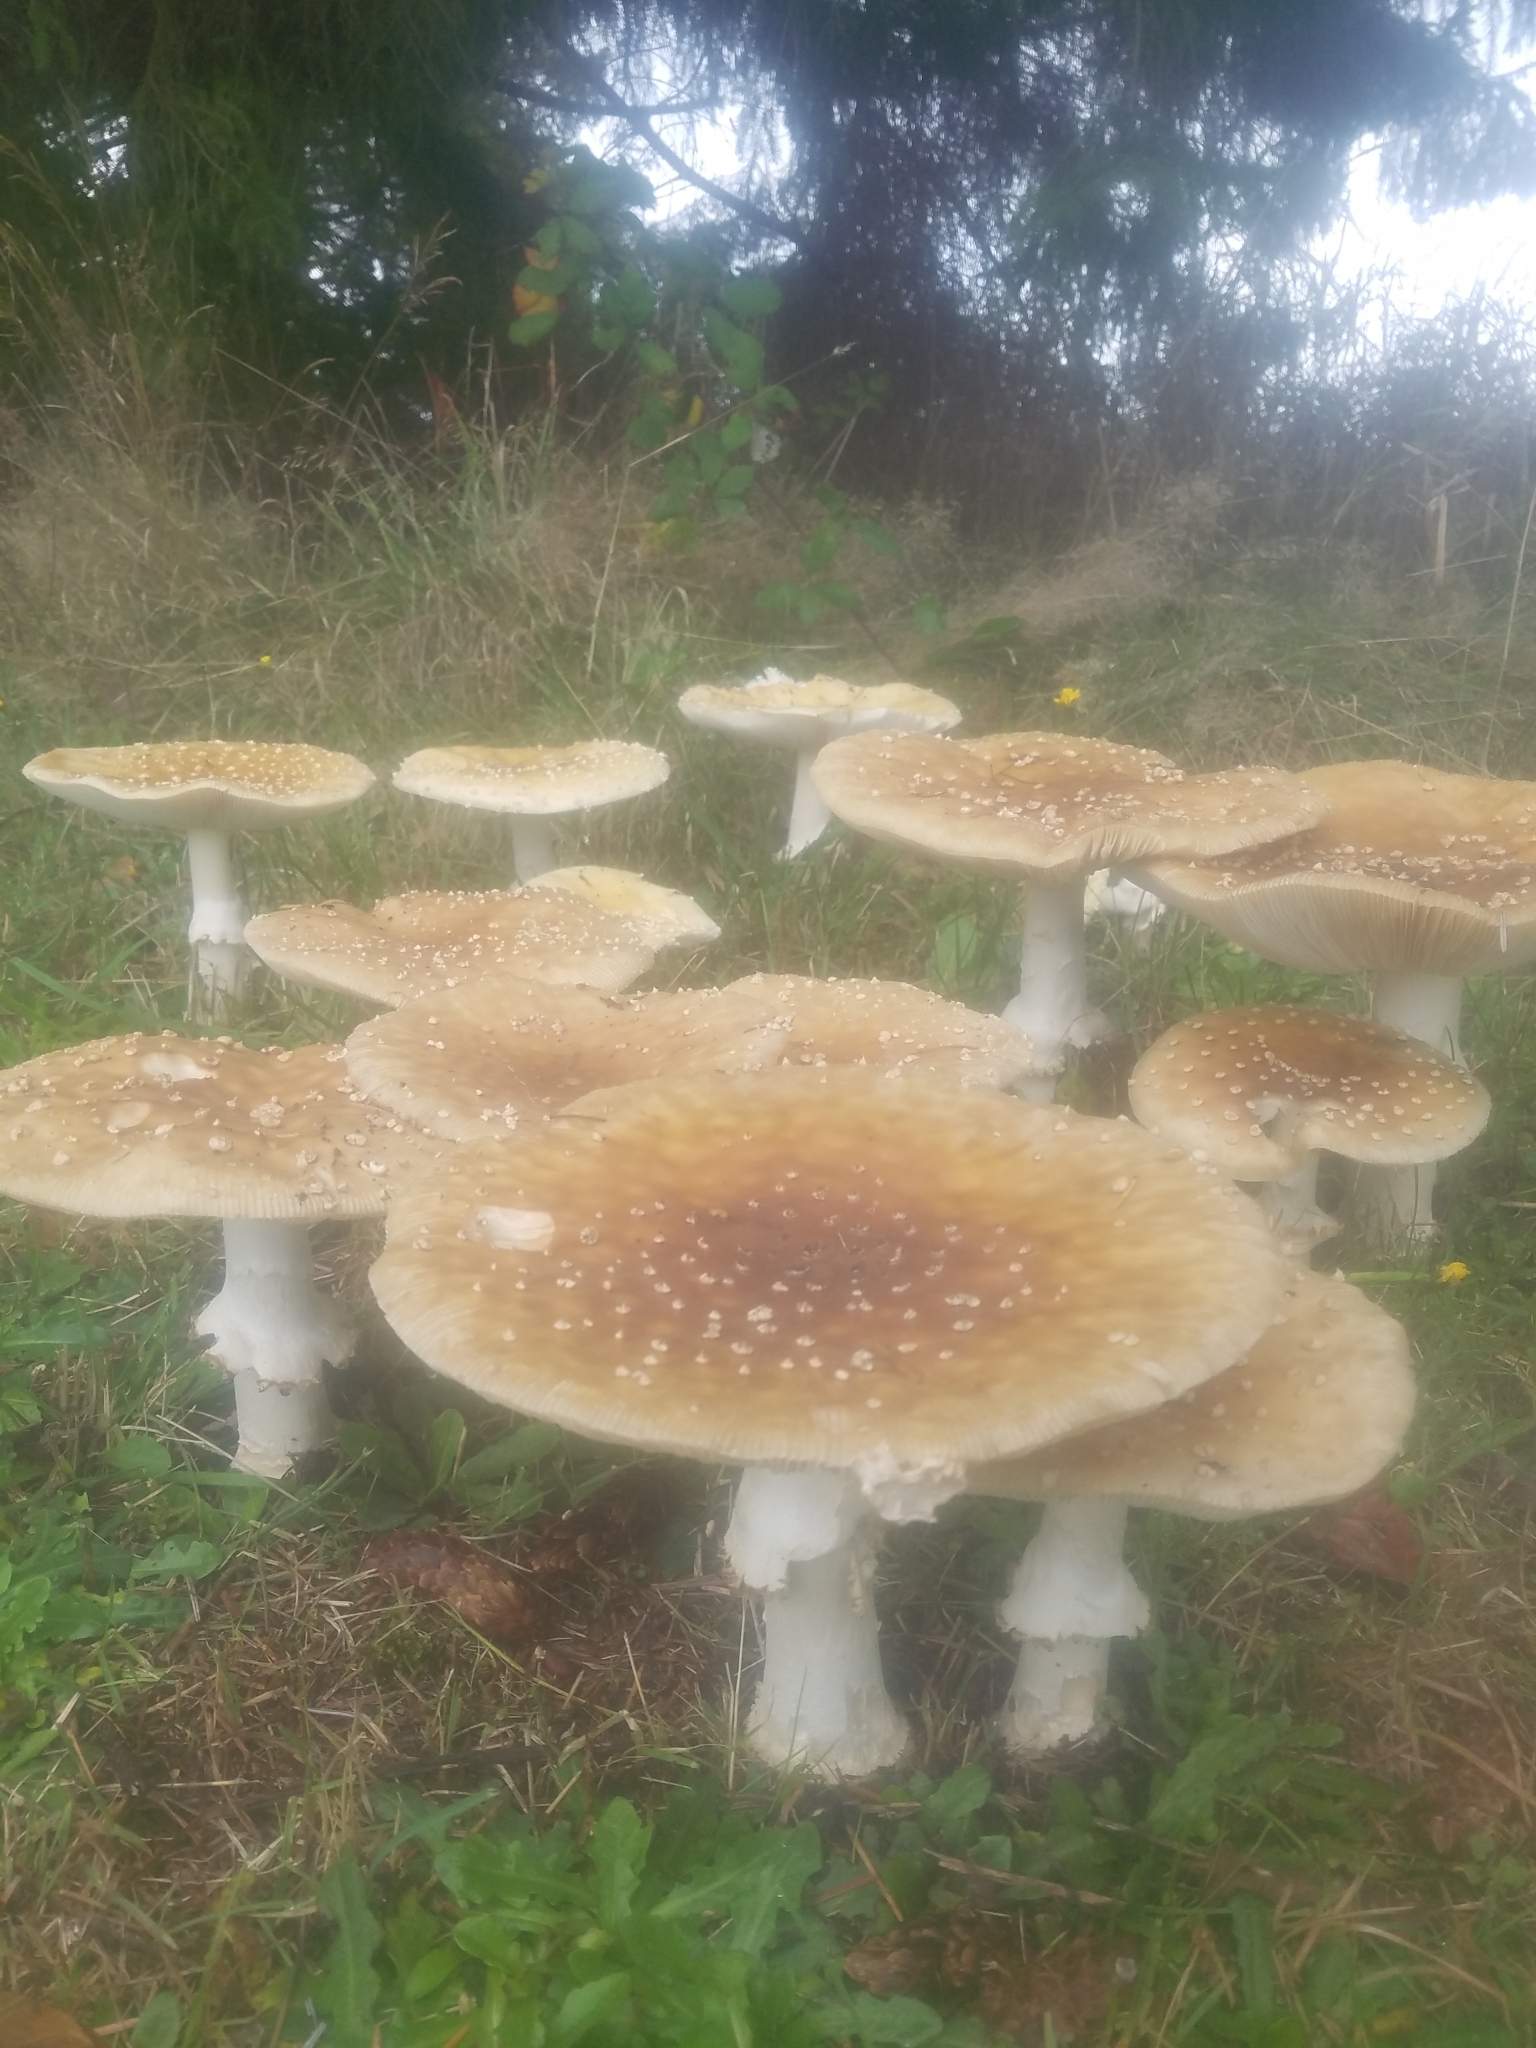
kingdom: Fungi
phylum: Basidiomycota
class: Agaricomycetes
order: Agaricales
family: Amanitaceae
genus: Amanita
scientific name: Amanita muscaria
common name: Fly agaric
